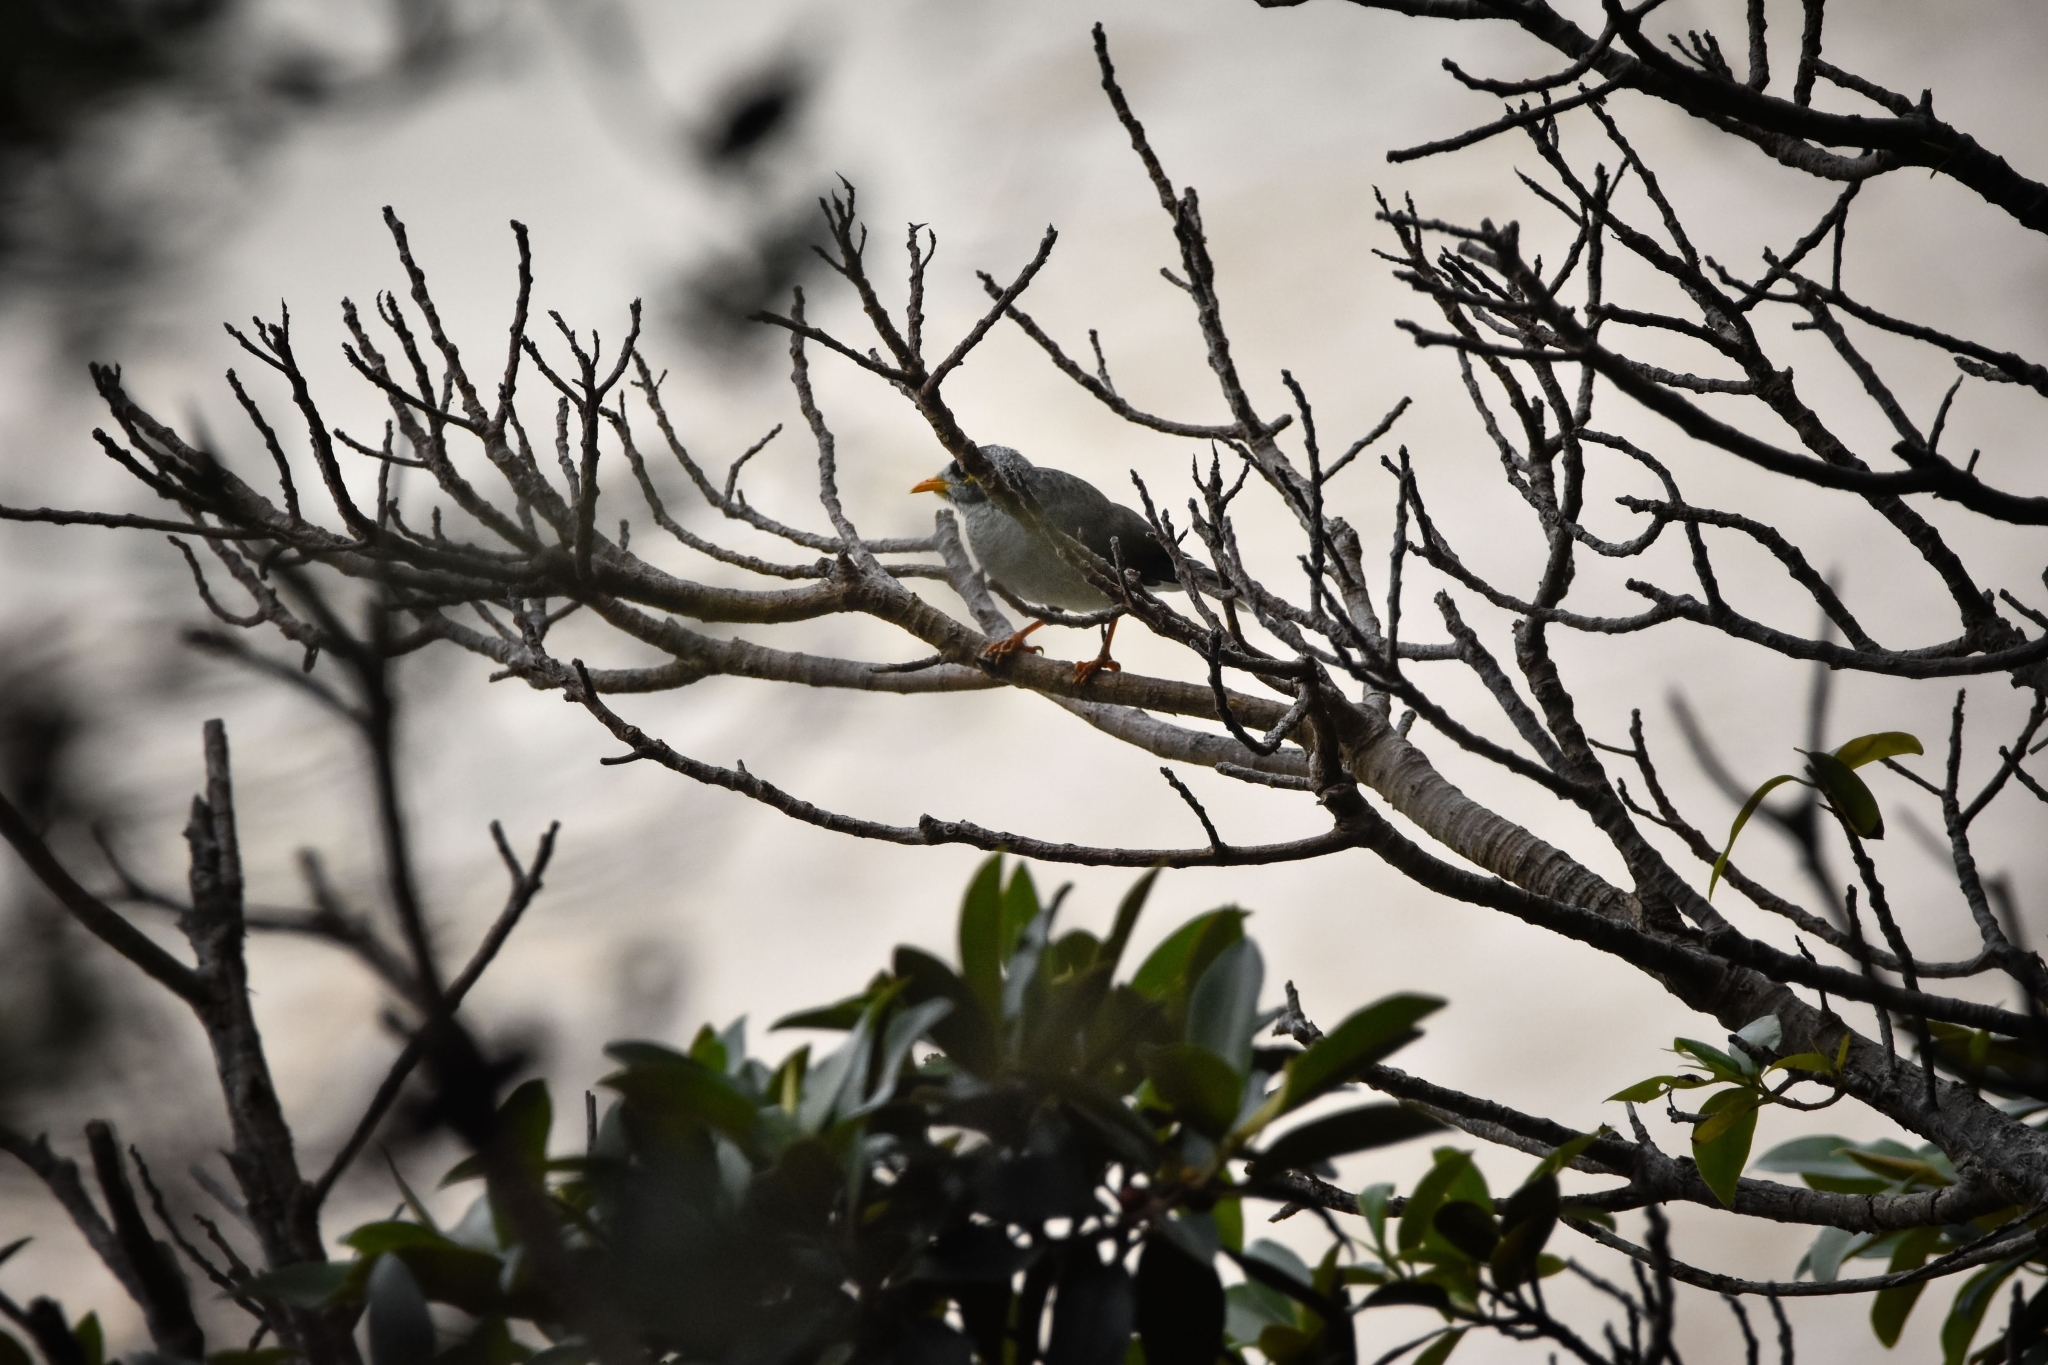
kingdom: Animalia
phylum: Chordata
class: Aves
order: Passeriformes
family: Meliphagidae
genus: Manorina
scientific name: Manorina melanocephala
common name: Noisy miner
